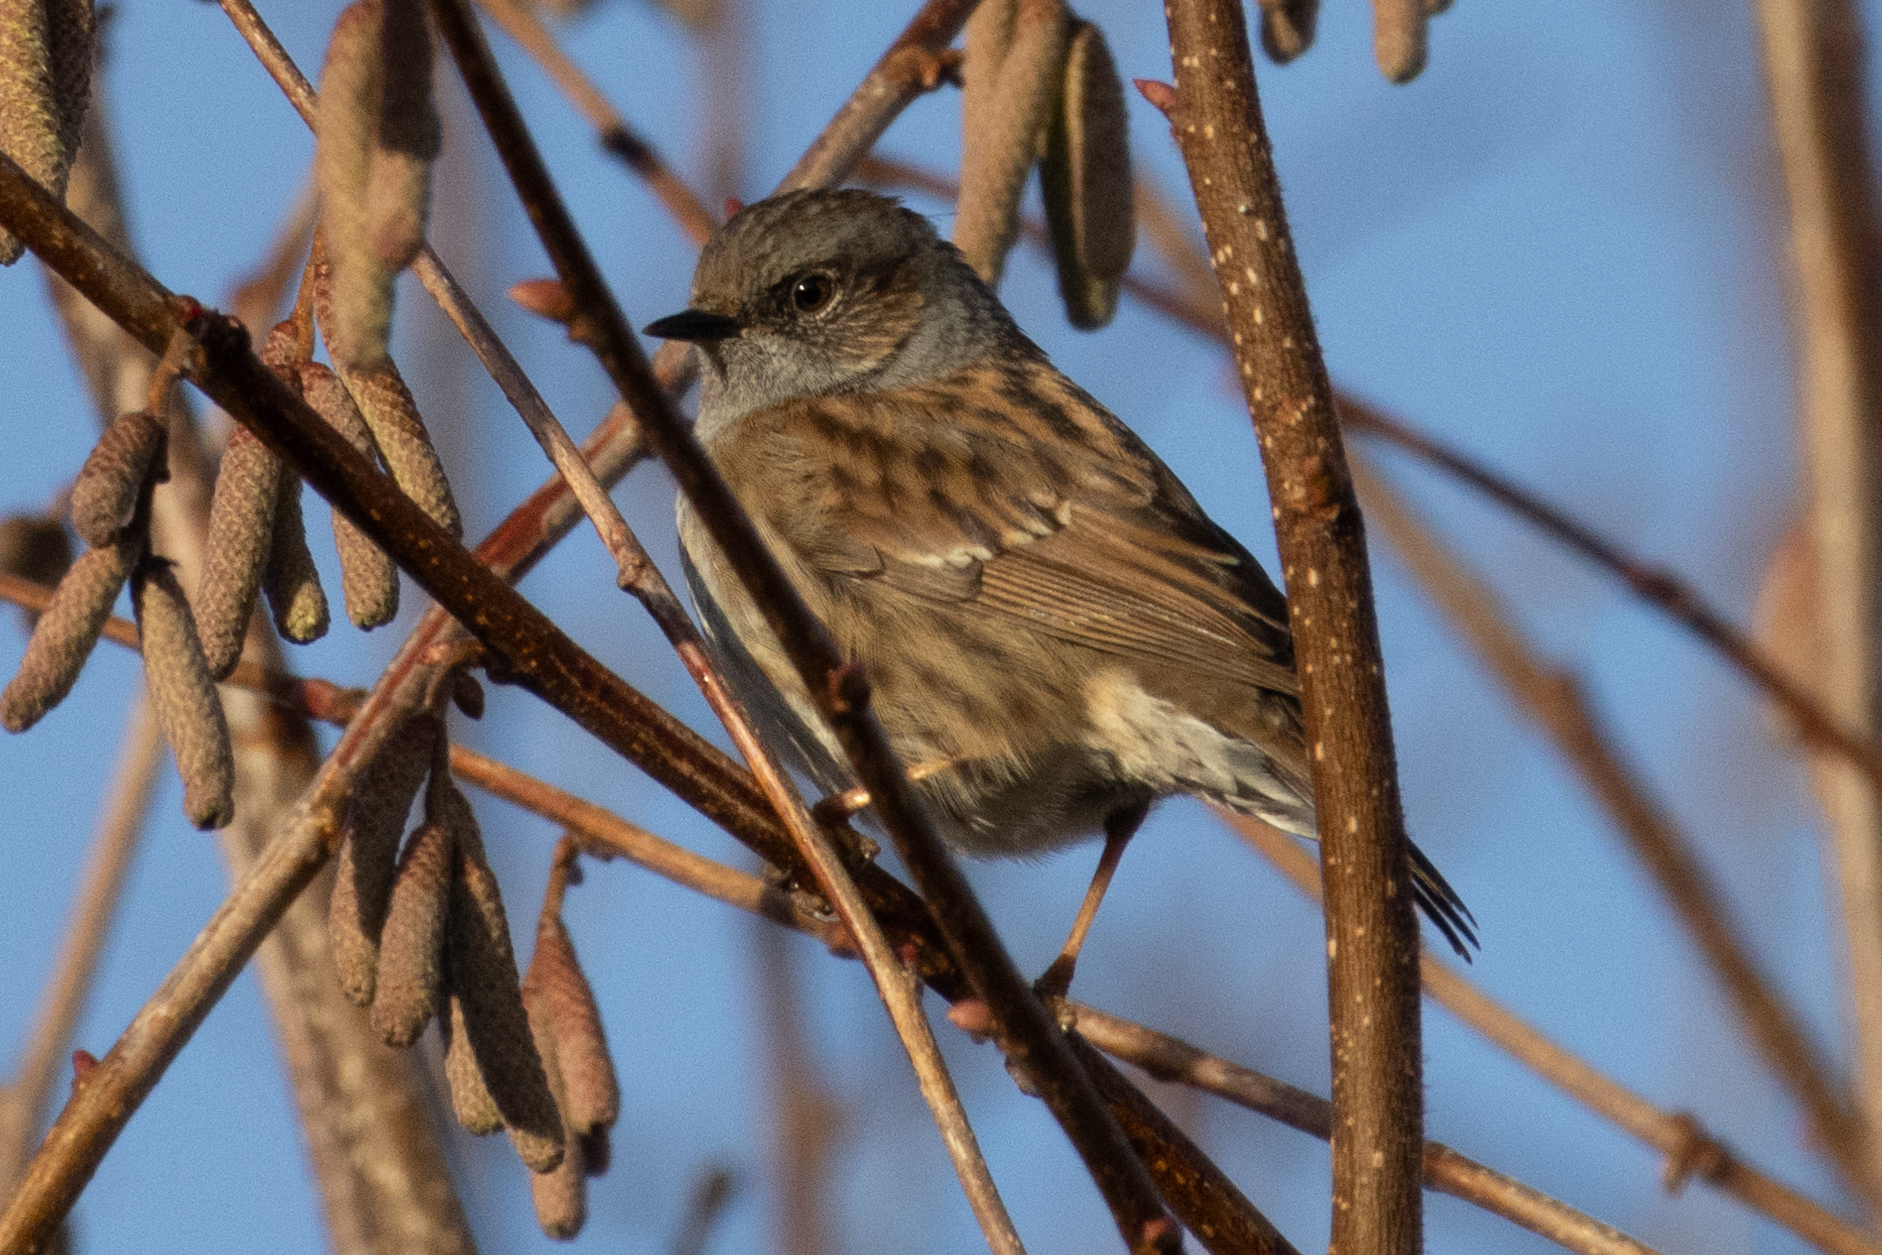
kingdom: Animalia
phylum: Chordata
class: Aves
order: Passeriformes
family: Prunellidae
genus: Prunella
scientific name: Prunella modularis
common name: Dunnock
